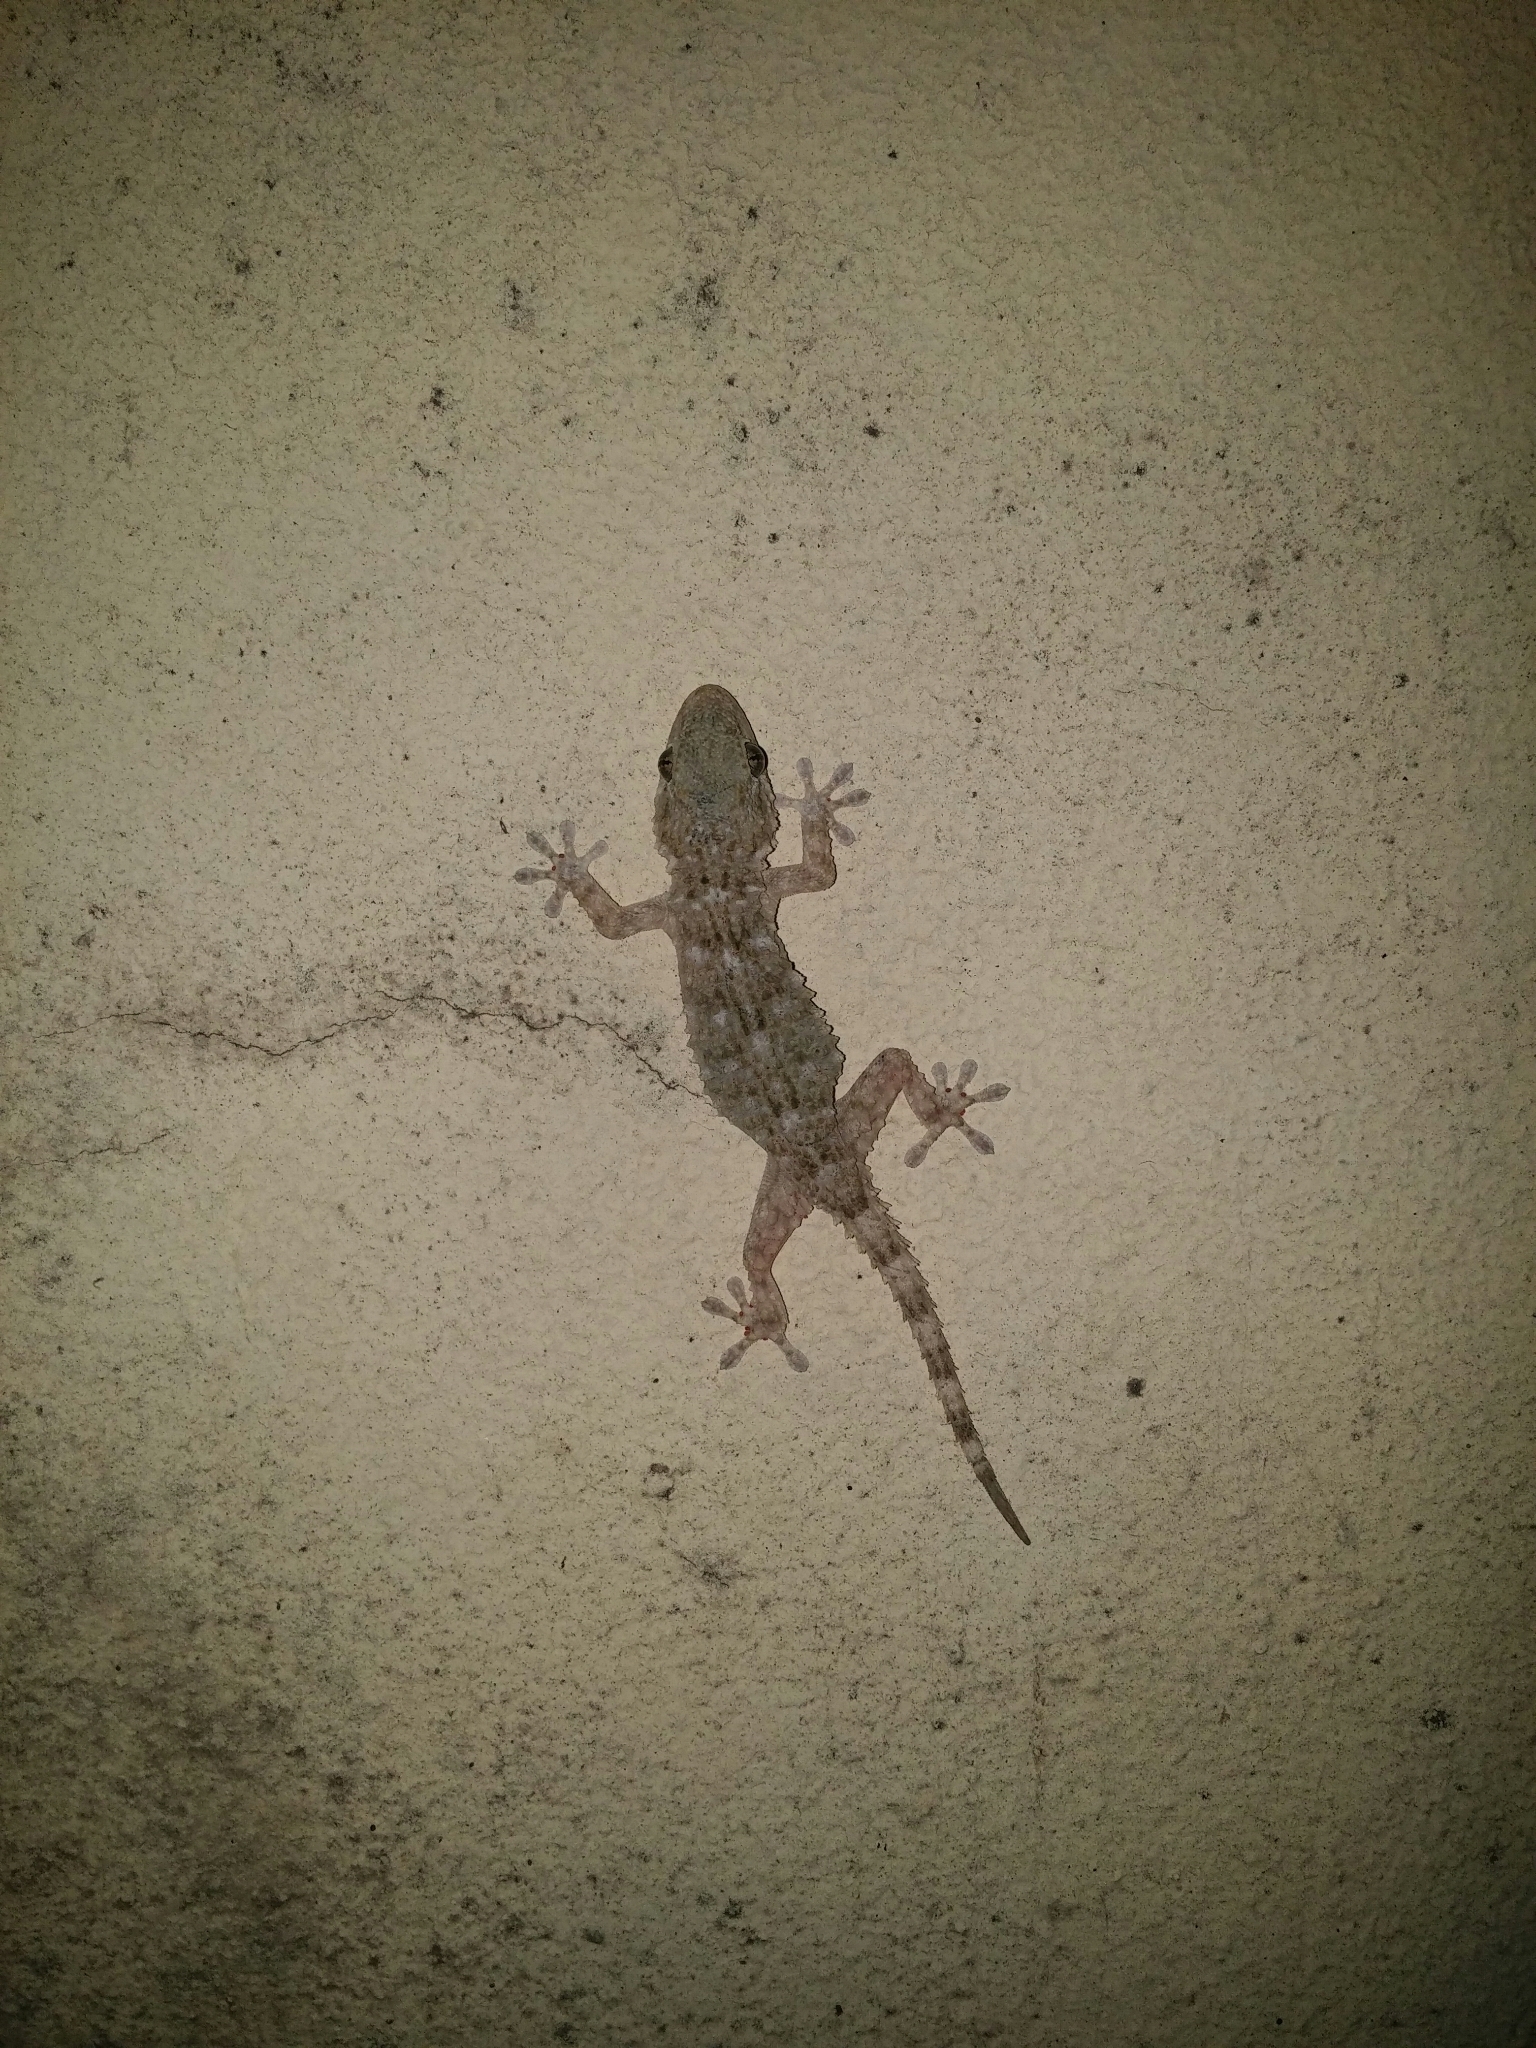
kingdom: Animalia
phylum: Chordata
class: Squamata
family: Phyllodactylidae
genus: Tarentola
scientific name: Tarentola mauritanica
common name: Moorish gecko
